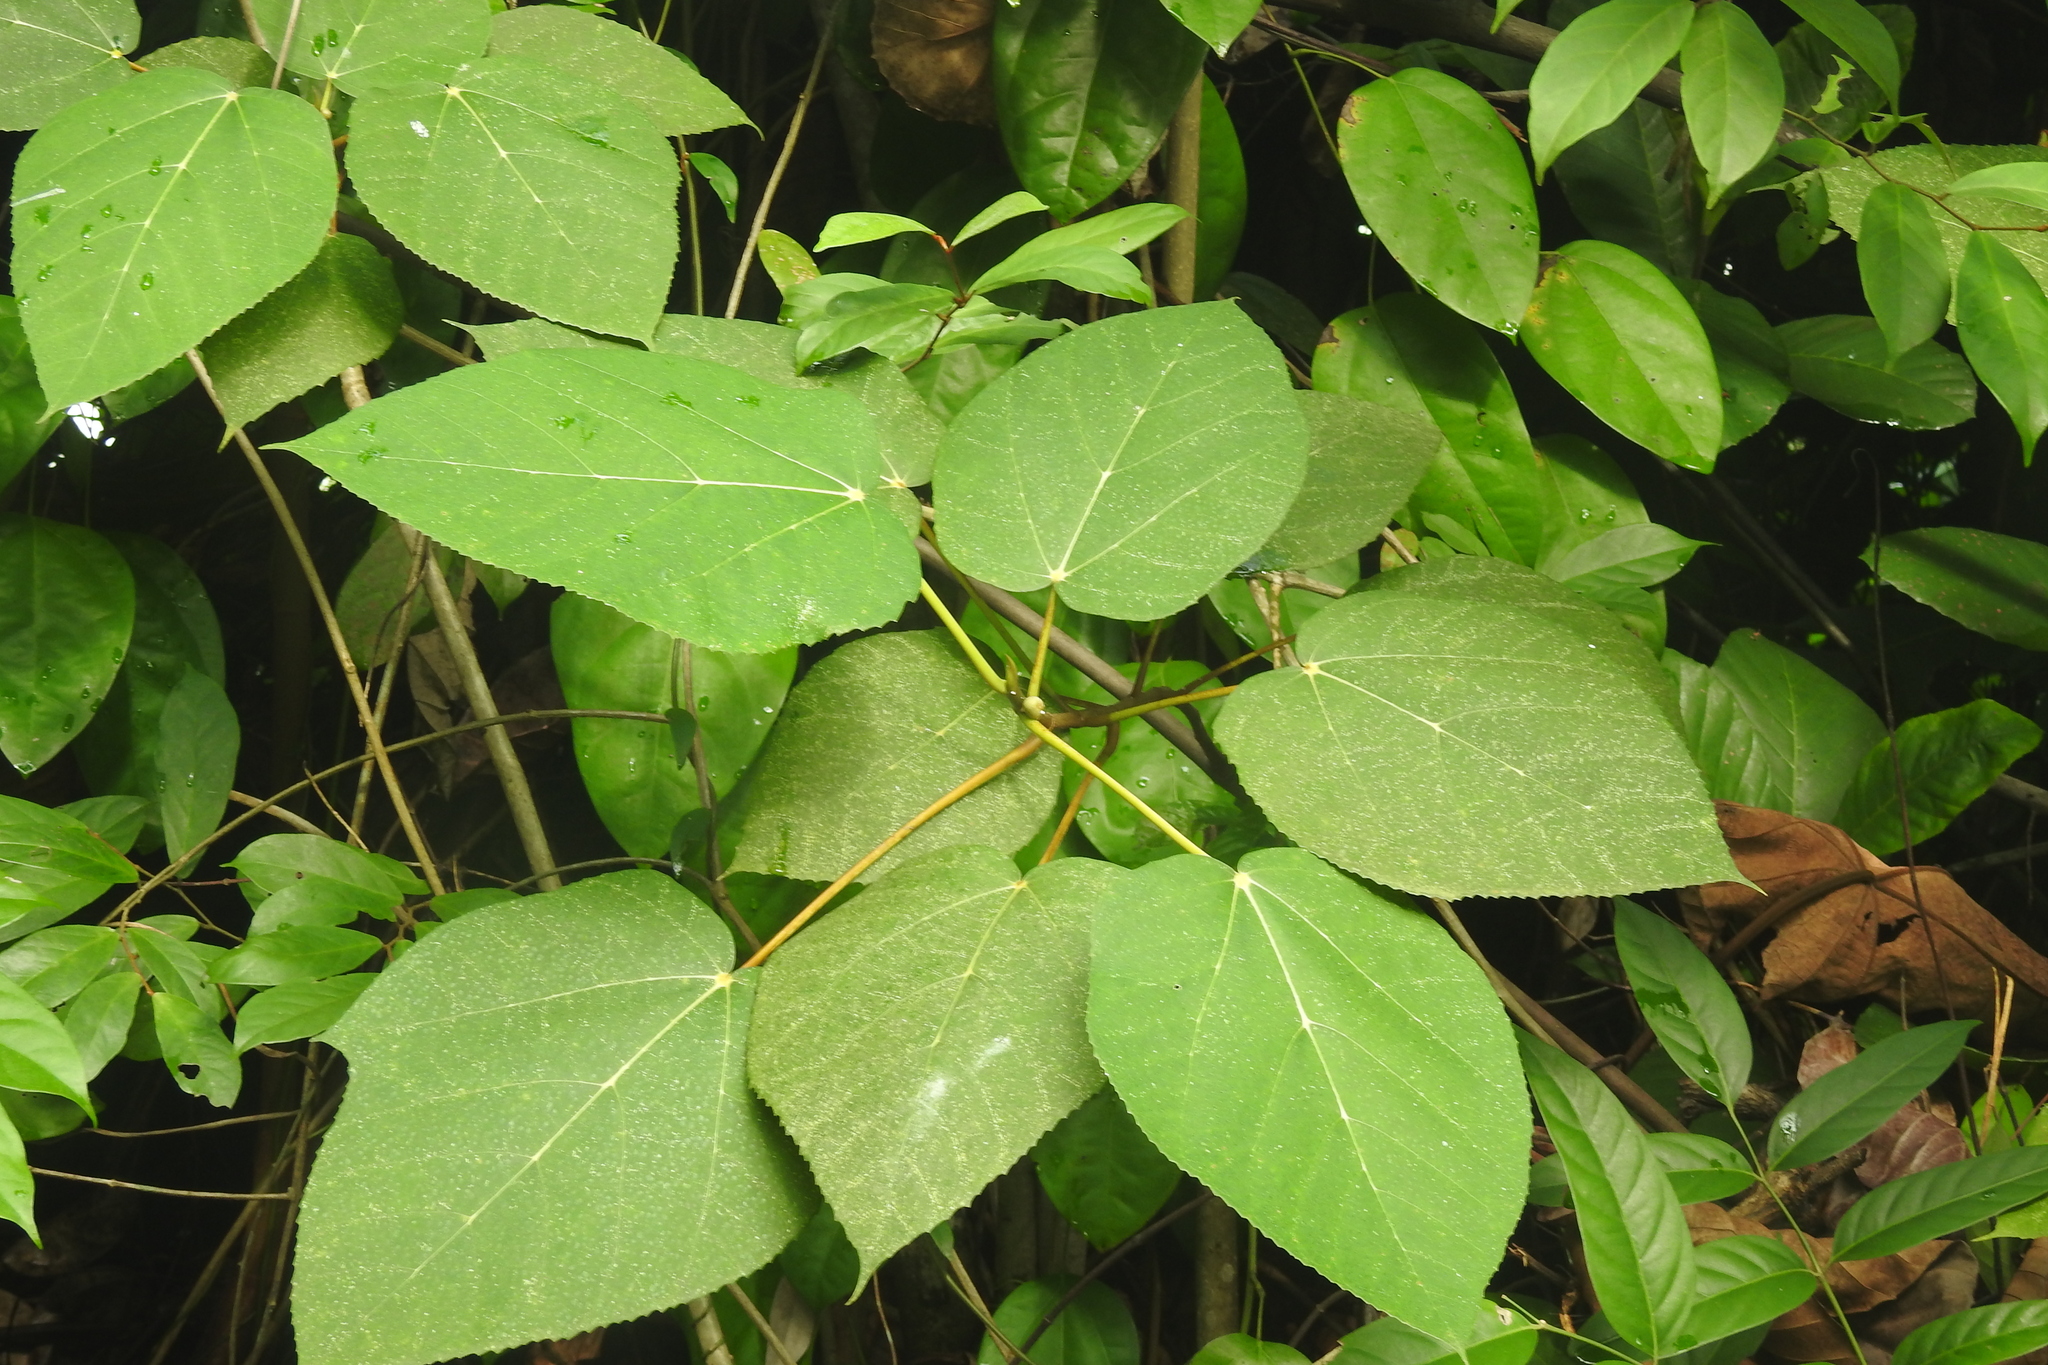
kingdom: Plantae
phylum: Tracheophyta
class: Magnoliopsida
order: Rosales
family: Moraceae
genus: Ficus
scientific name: Ficus grossularioides
